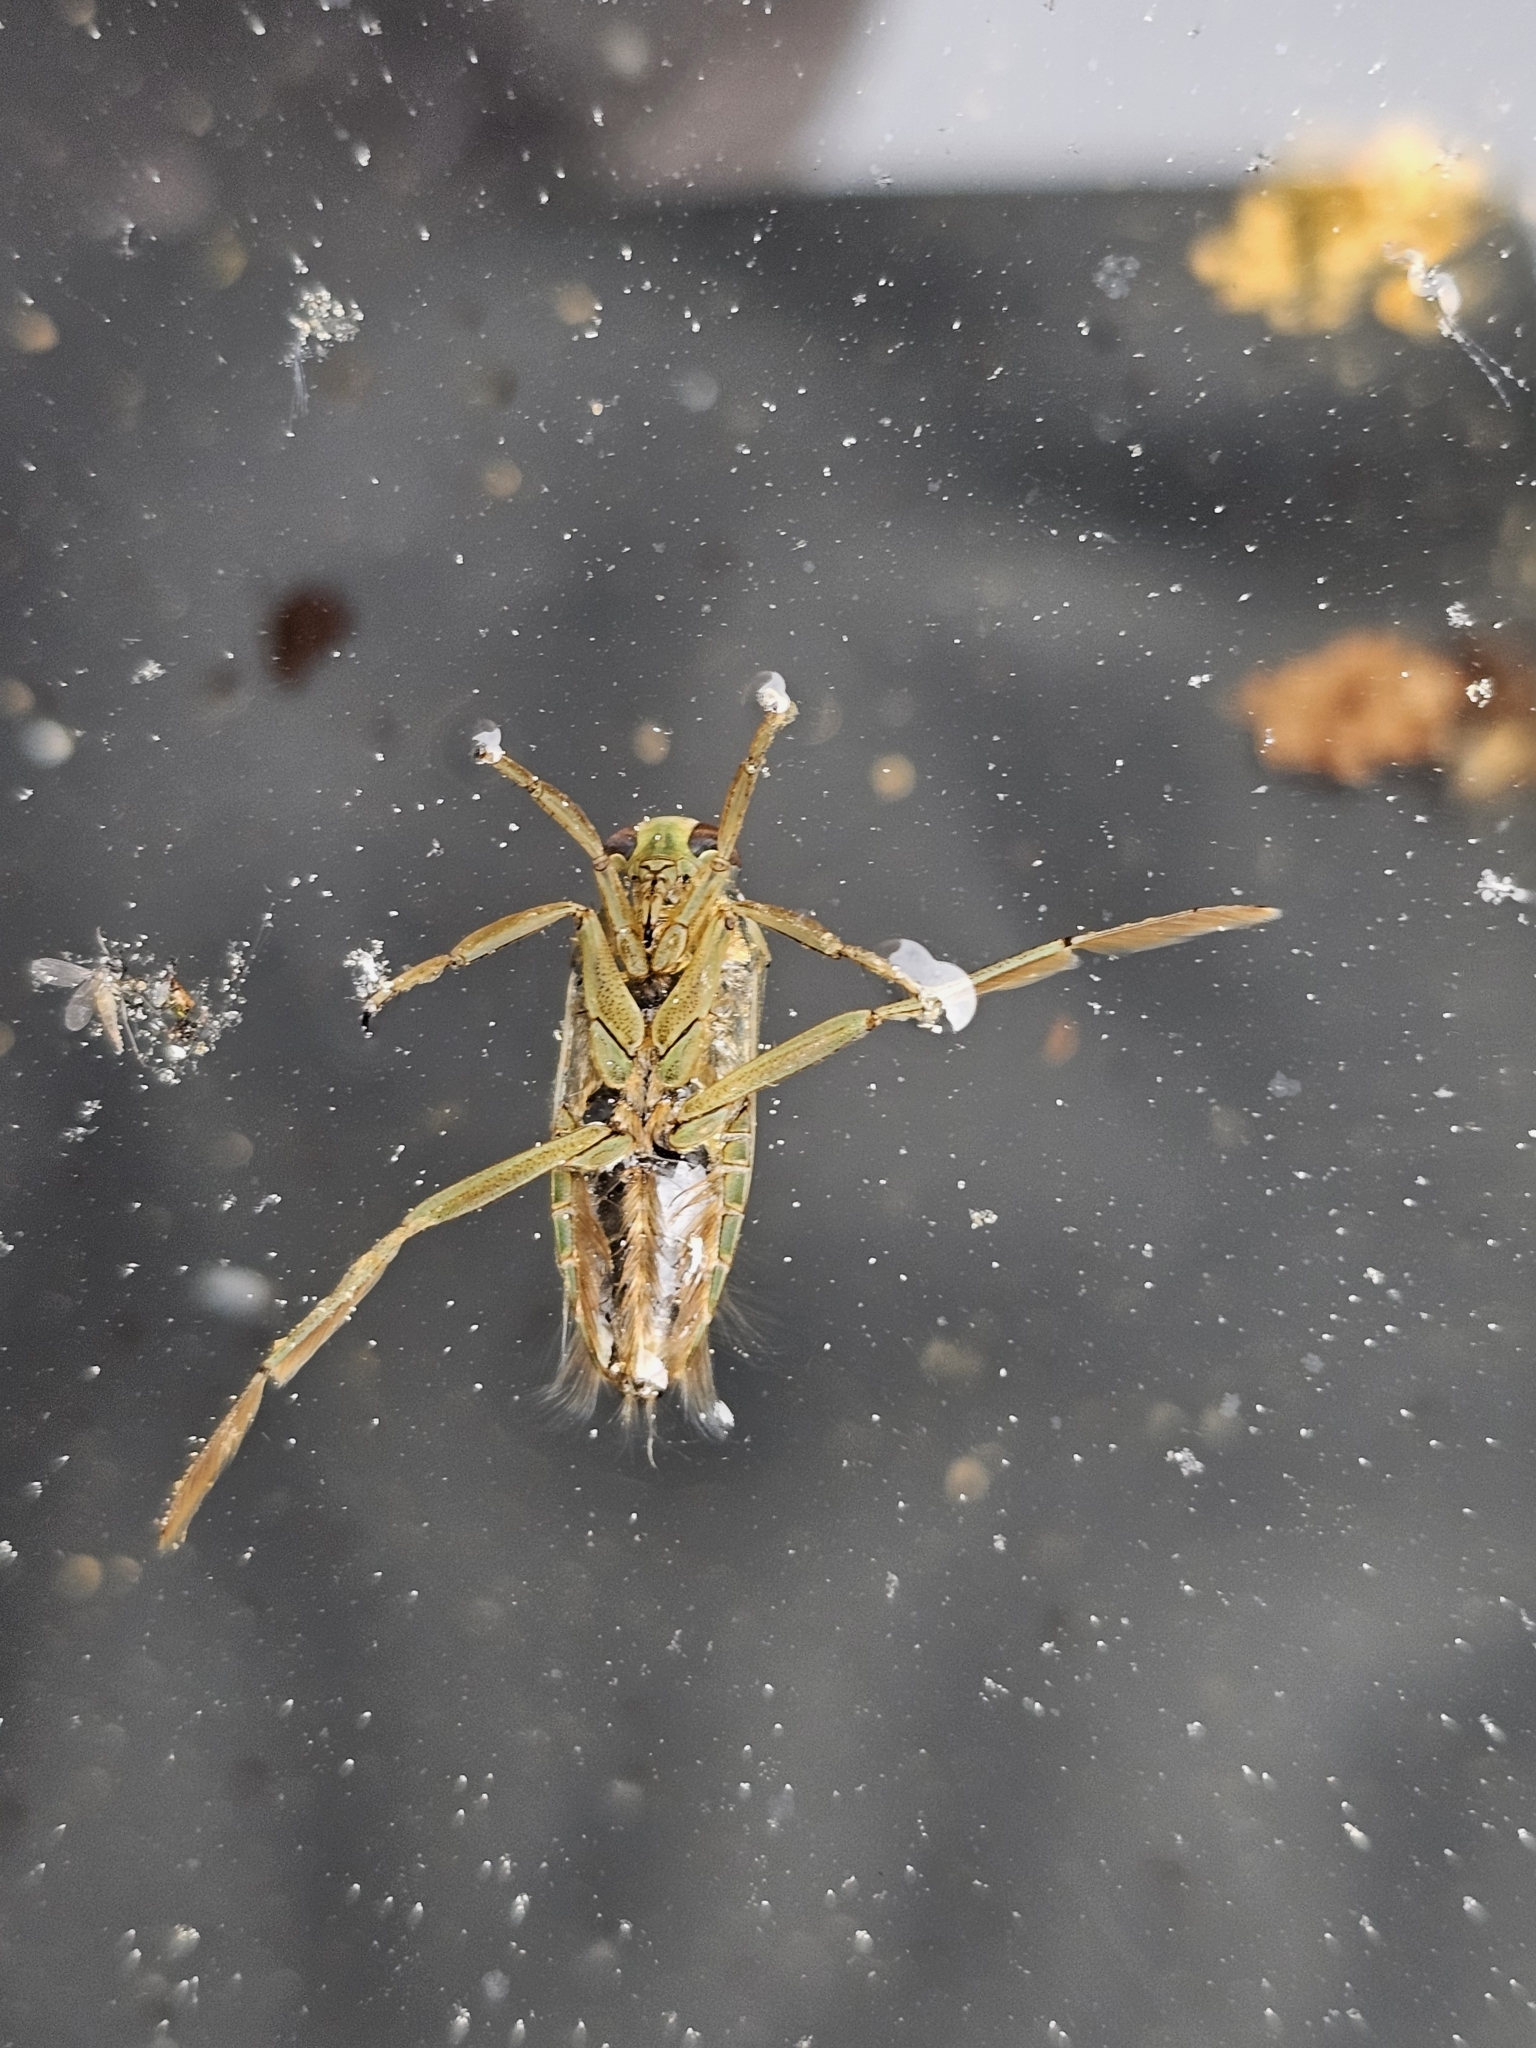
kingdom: Animalia
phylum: Arthropoda
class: Insecta
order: Hemiptera
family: Notonectidae
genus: Notonecta
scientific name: Notonecta
